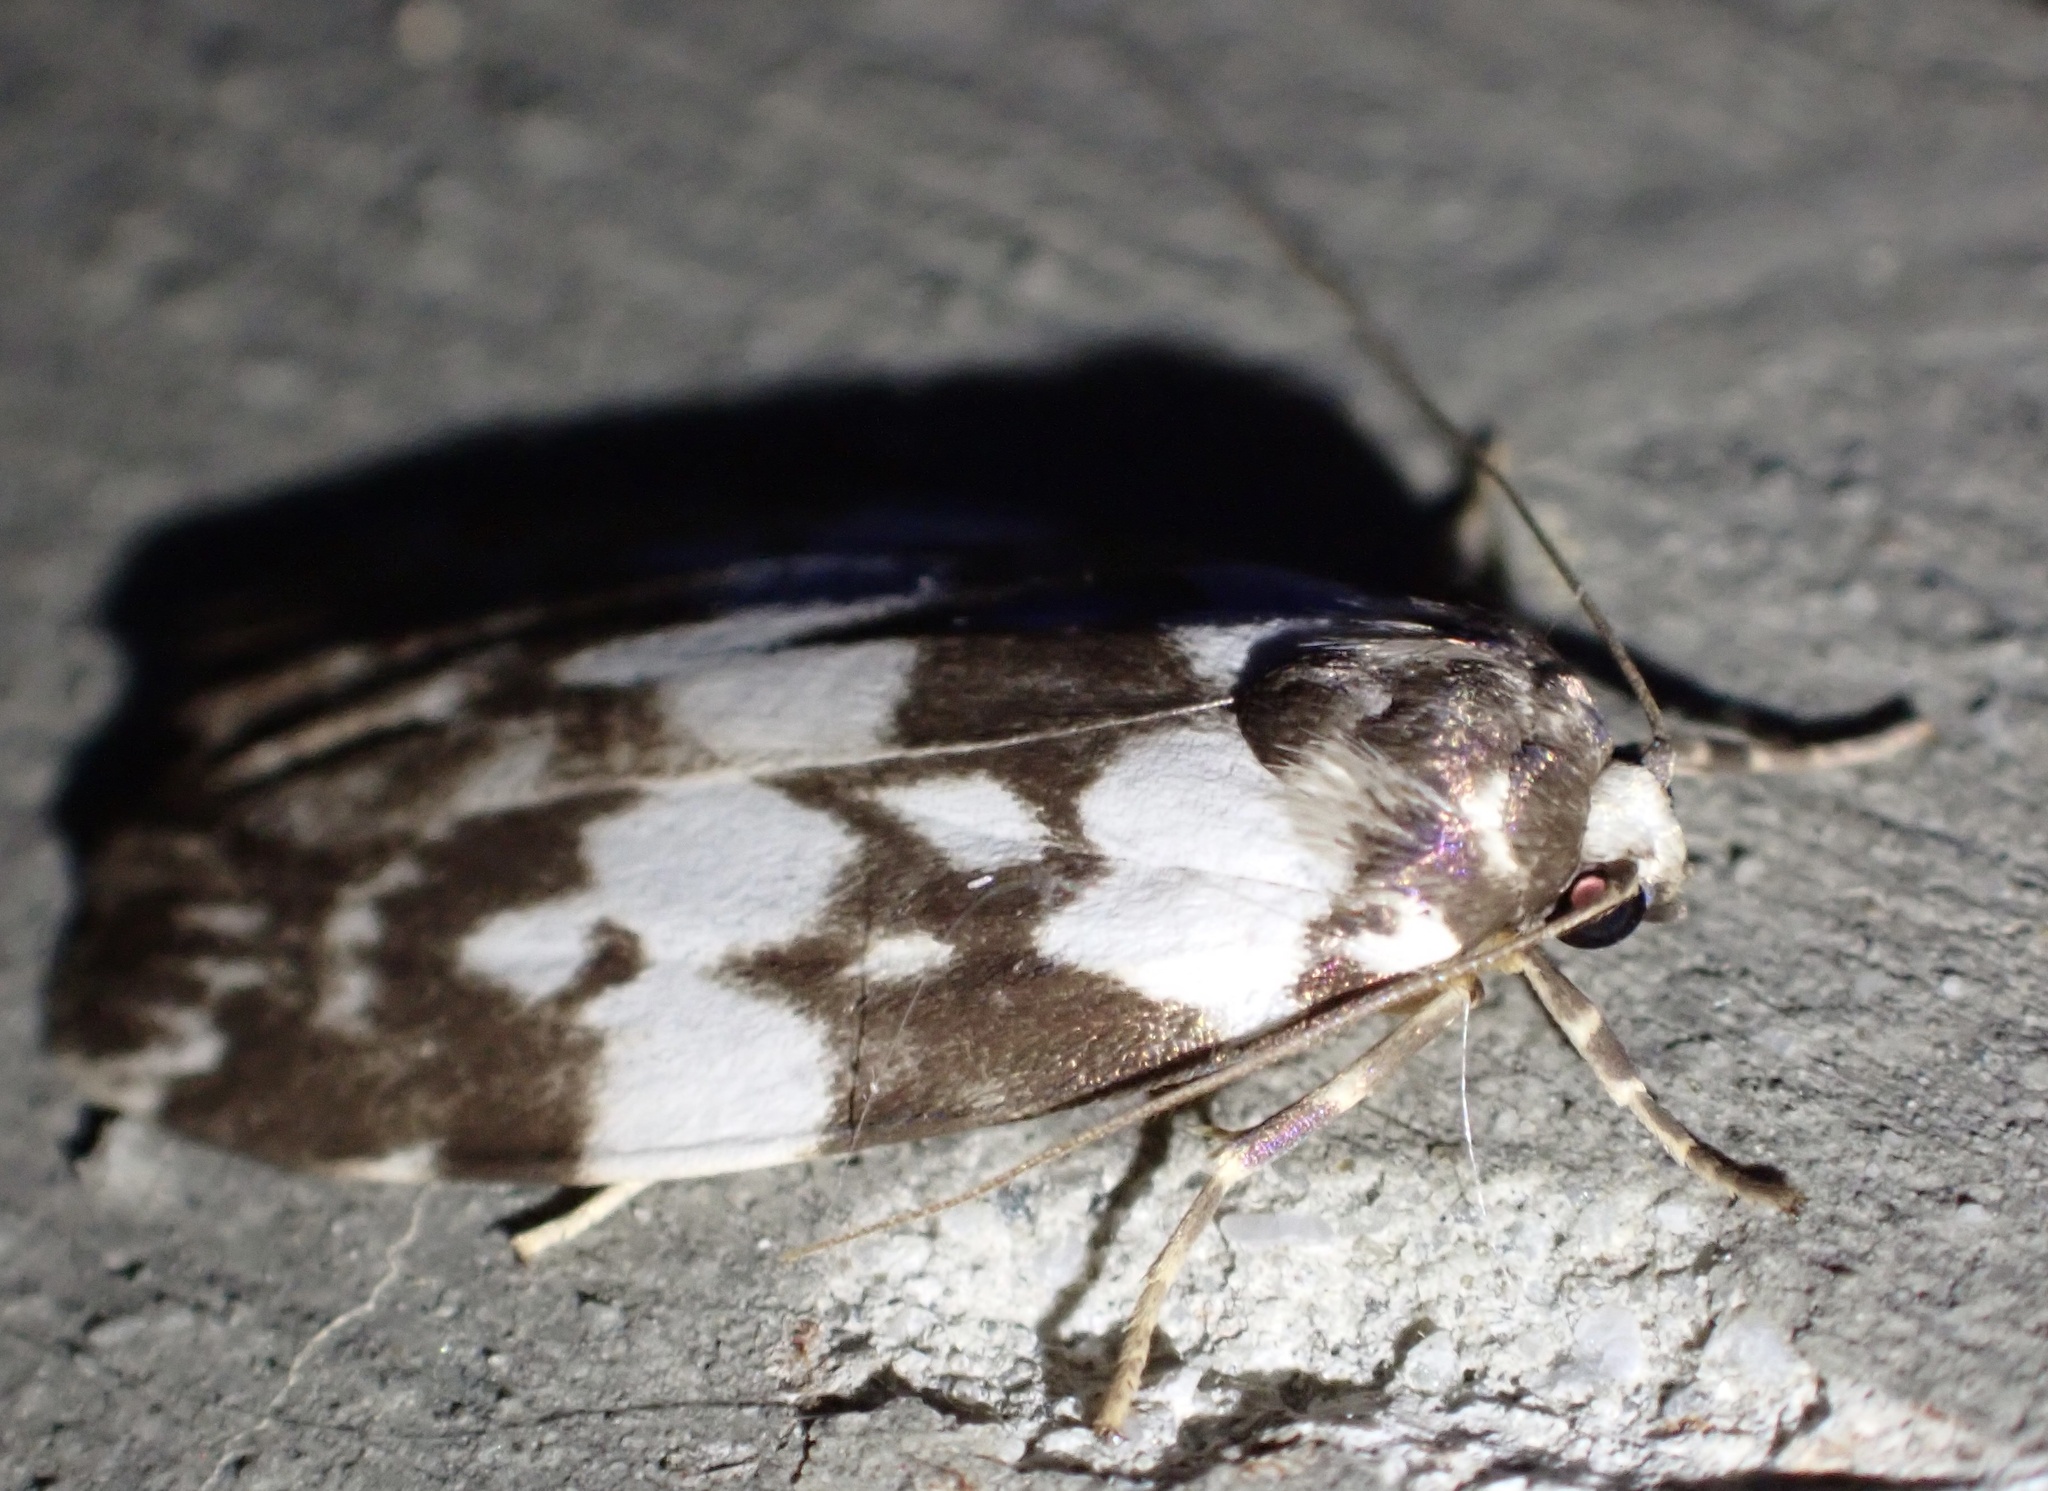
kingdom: Animalia
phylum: Arthropoda
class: Insecta
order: Lepidoptera
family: Erebidae
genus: Cyana
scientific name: Cyana inusitata
